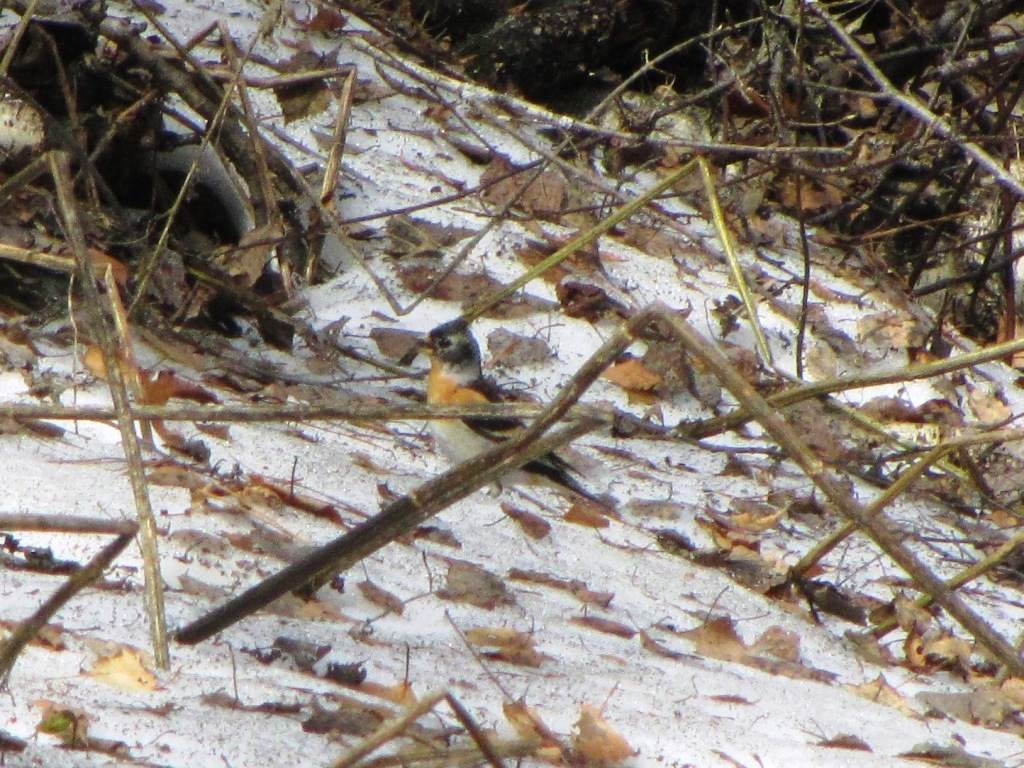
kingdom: Animalia
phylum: Chordata
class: Aves
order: Passeriformes
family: Fringillidae
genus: Fringilla
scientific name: Fringilla montifringilla
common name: Brambling
